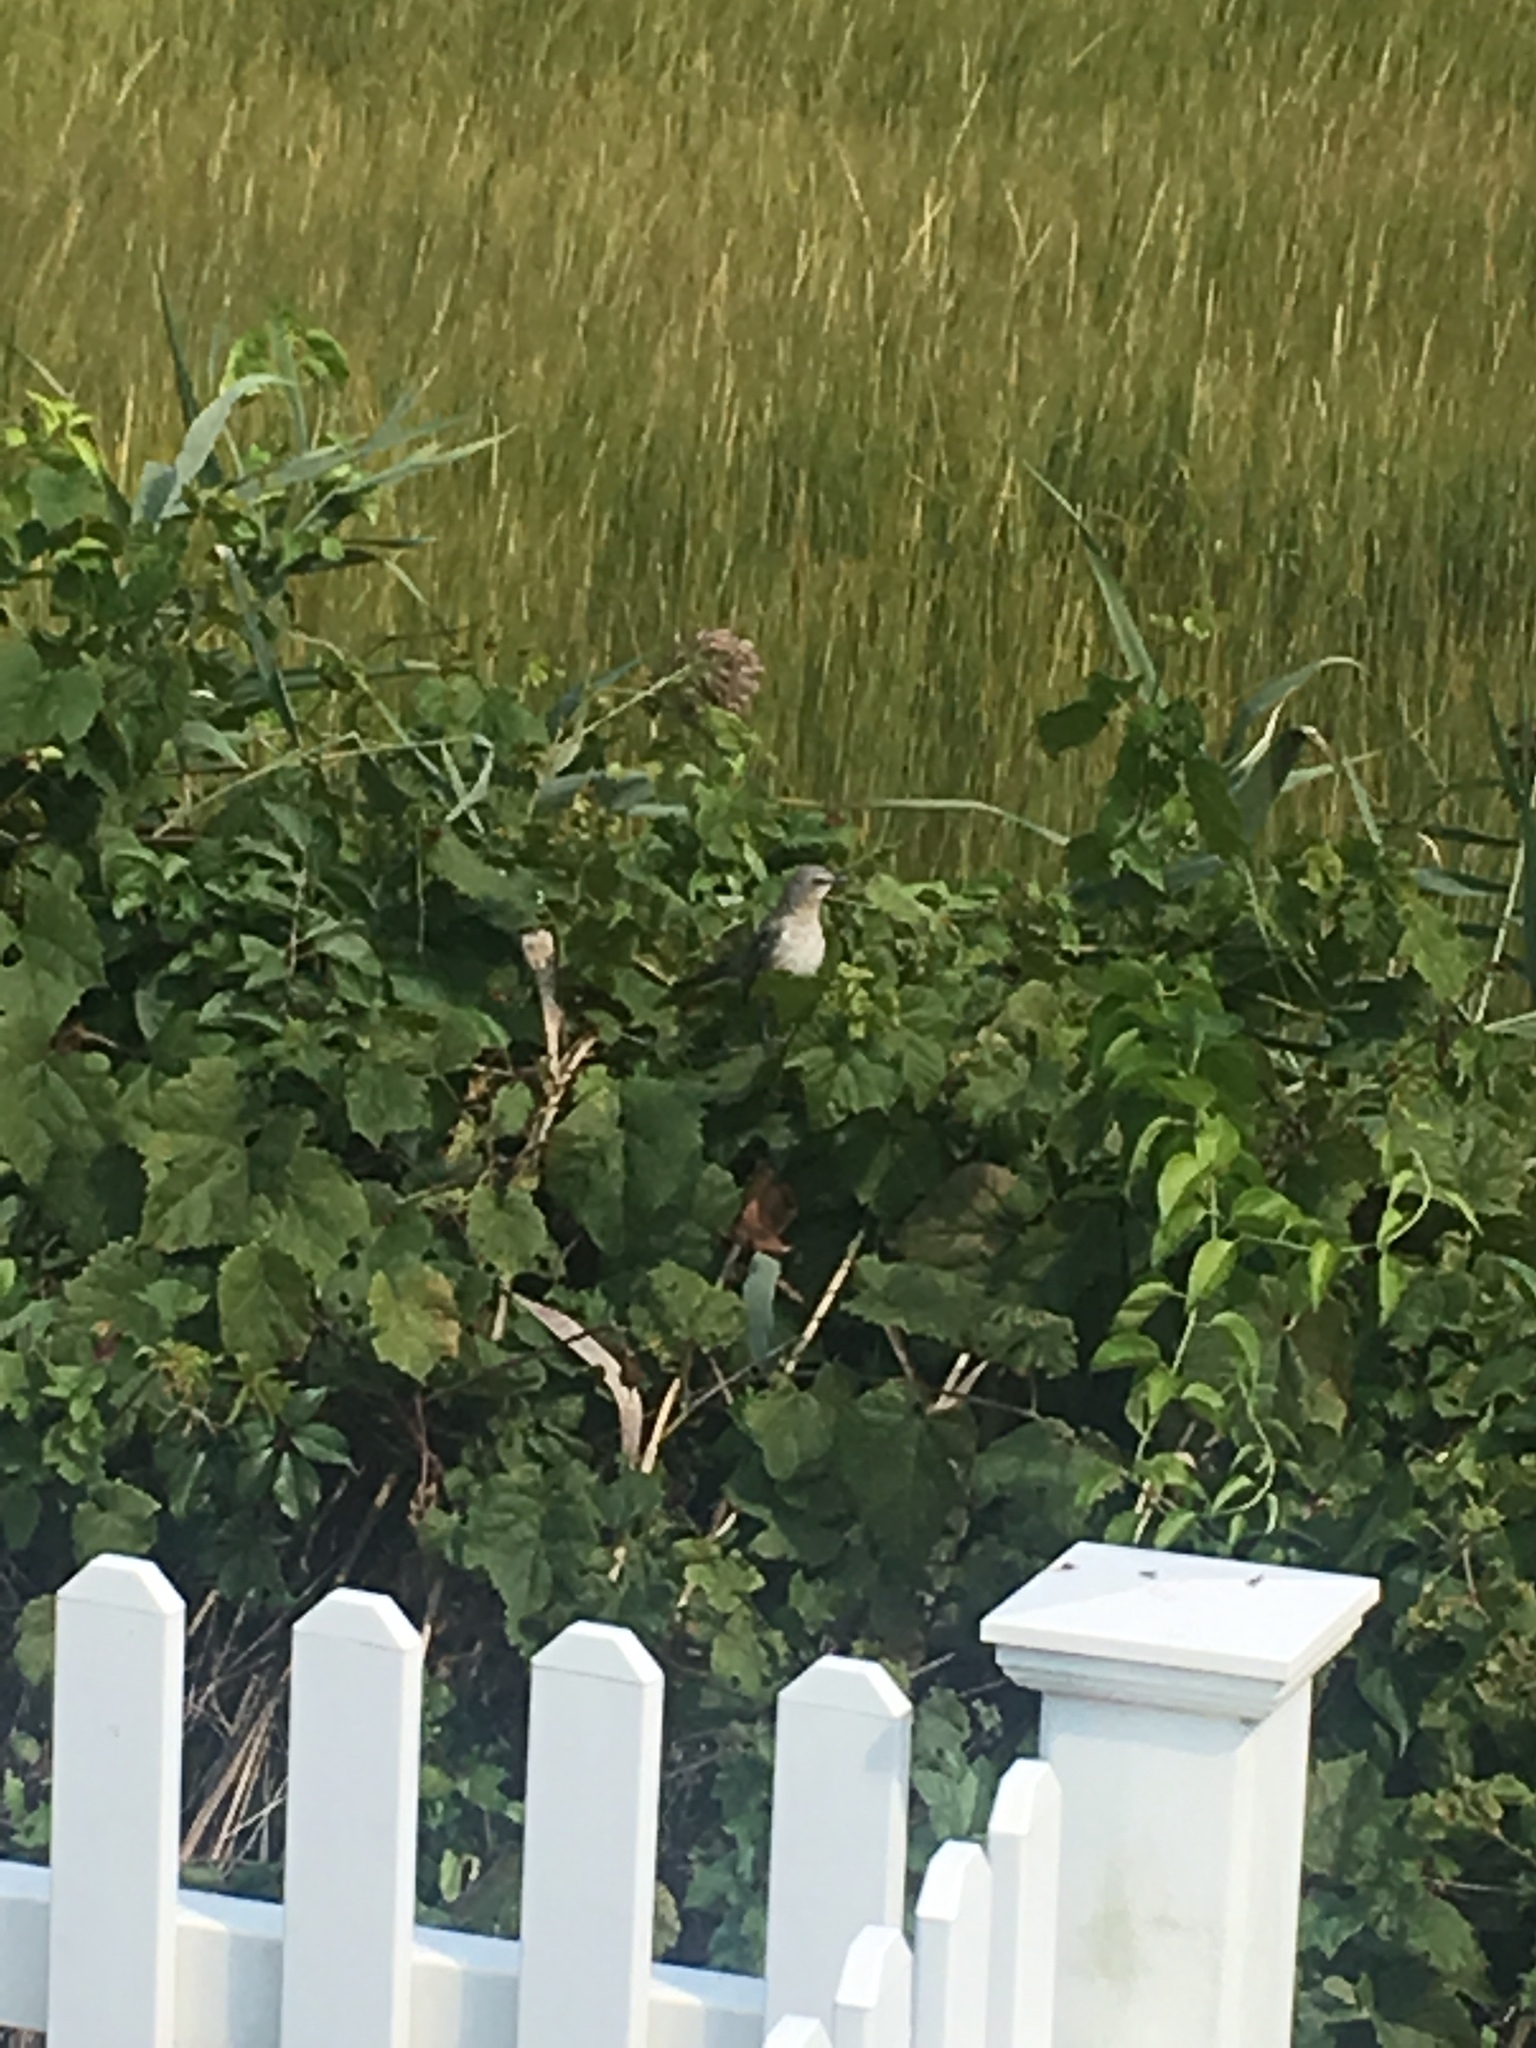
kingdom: Animalia
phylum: Chordata
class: Aves
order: Passeriformes
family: Mimidae
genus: Mimus
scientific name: Mimus polyglottos
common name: Northern mockingbird
